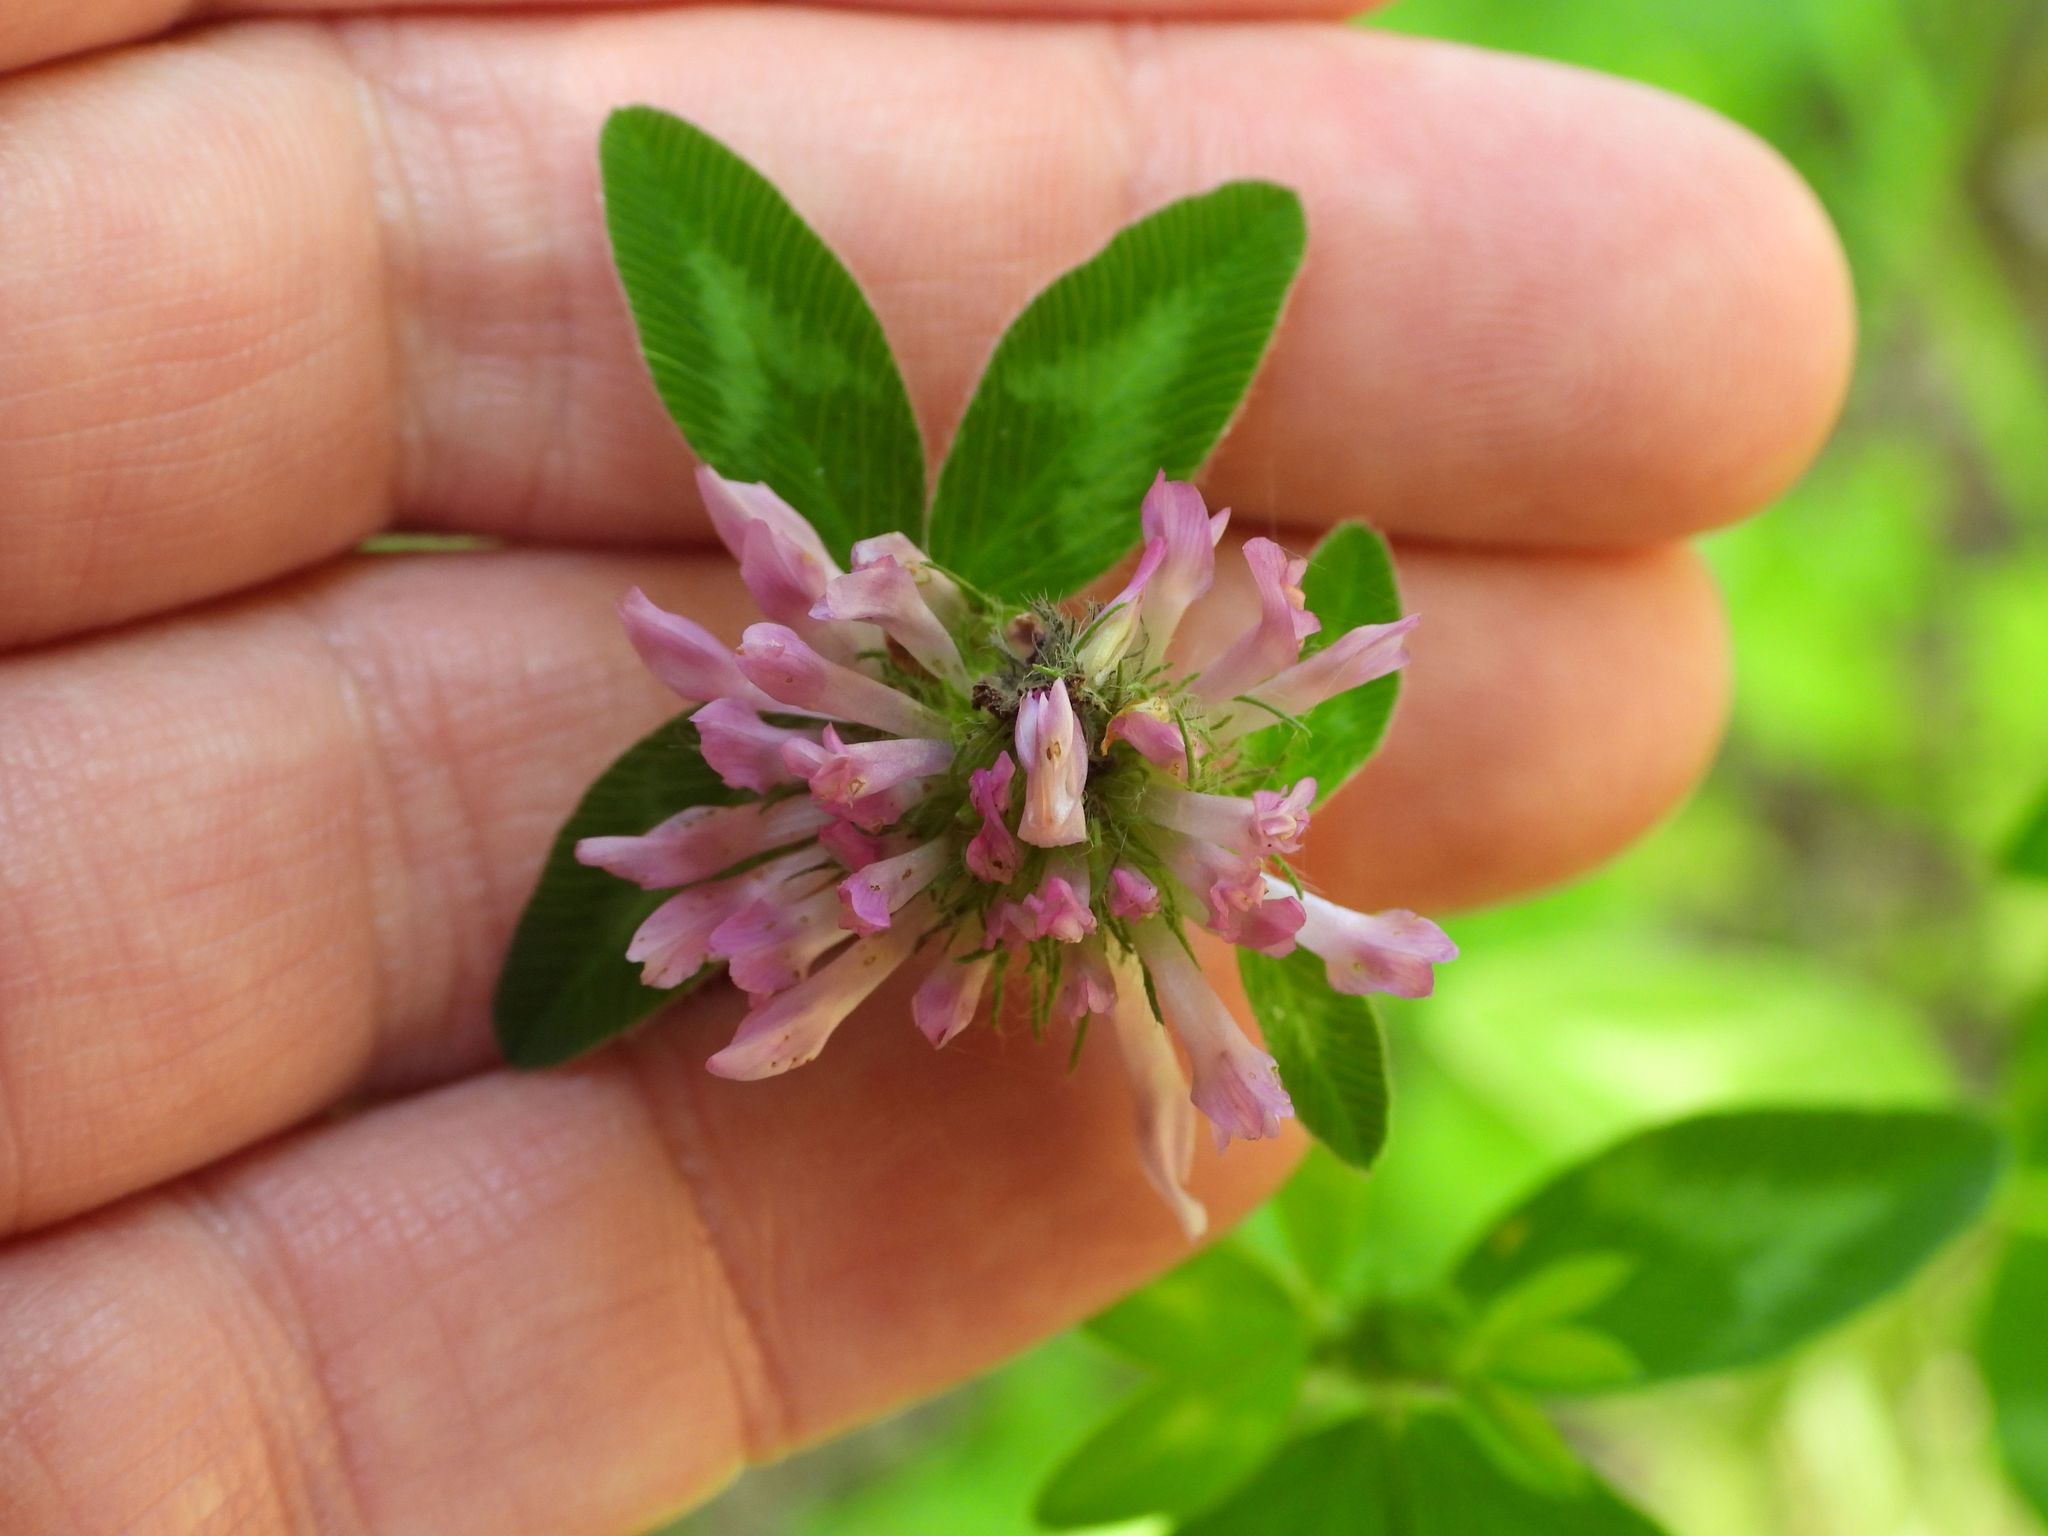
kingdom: Plantae
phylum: Tracheophyta
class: Magnoliopsida
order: Fabales
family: Fabaceae
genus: Trifolium
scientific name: Trifolium pratense
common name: Red clover
